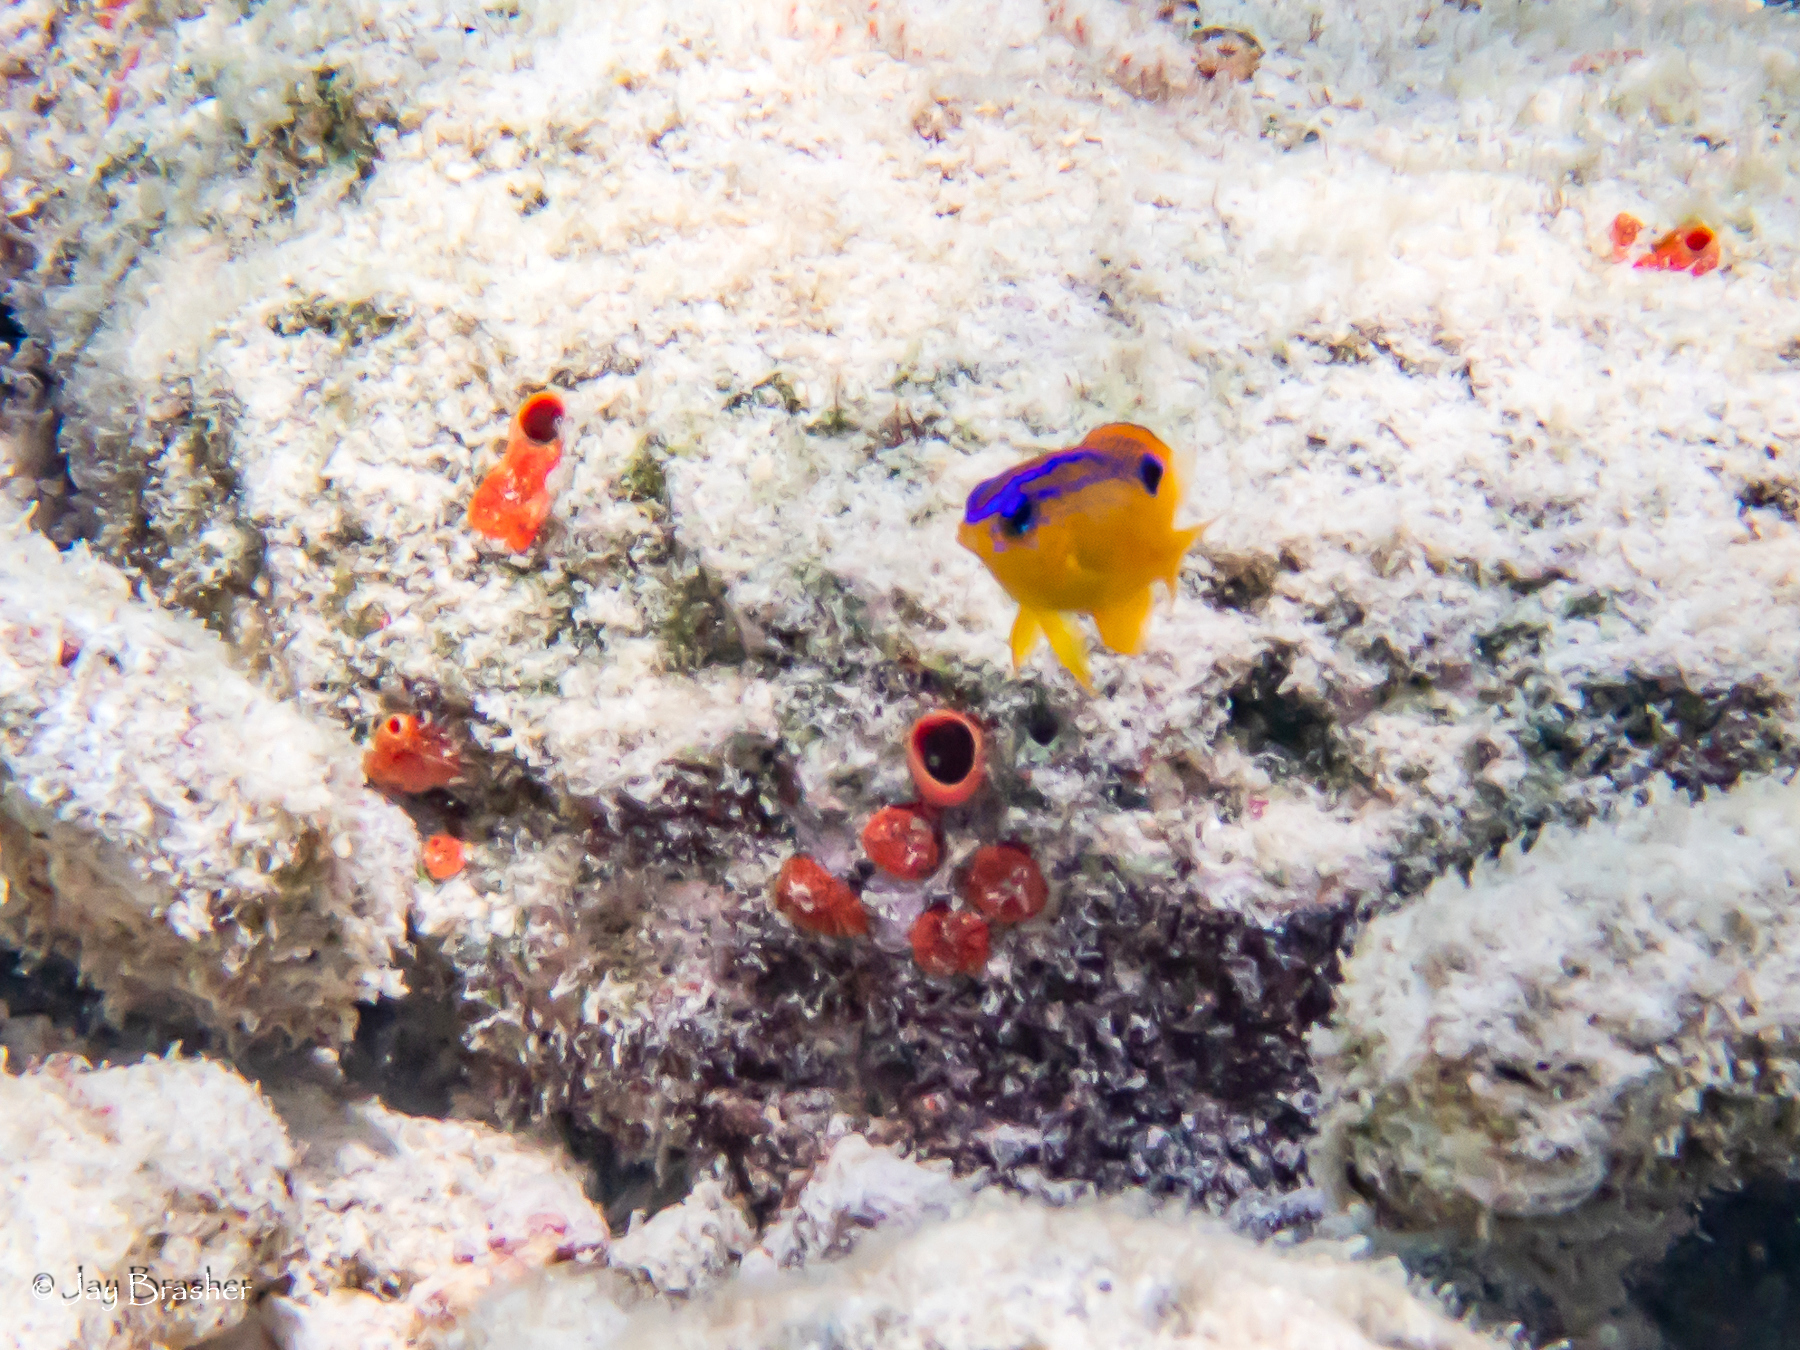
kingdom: Animalia
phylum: Chordata
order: Perciformes
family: Pomacentridae
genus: Stegastes
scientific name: Stegastes diencaeus
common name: Longfin damselfish
